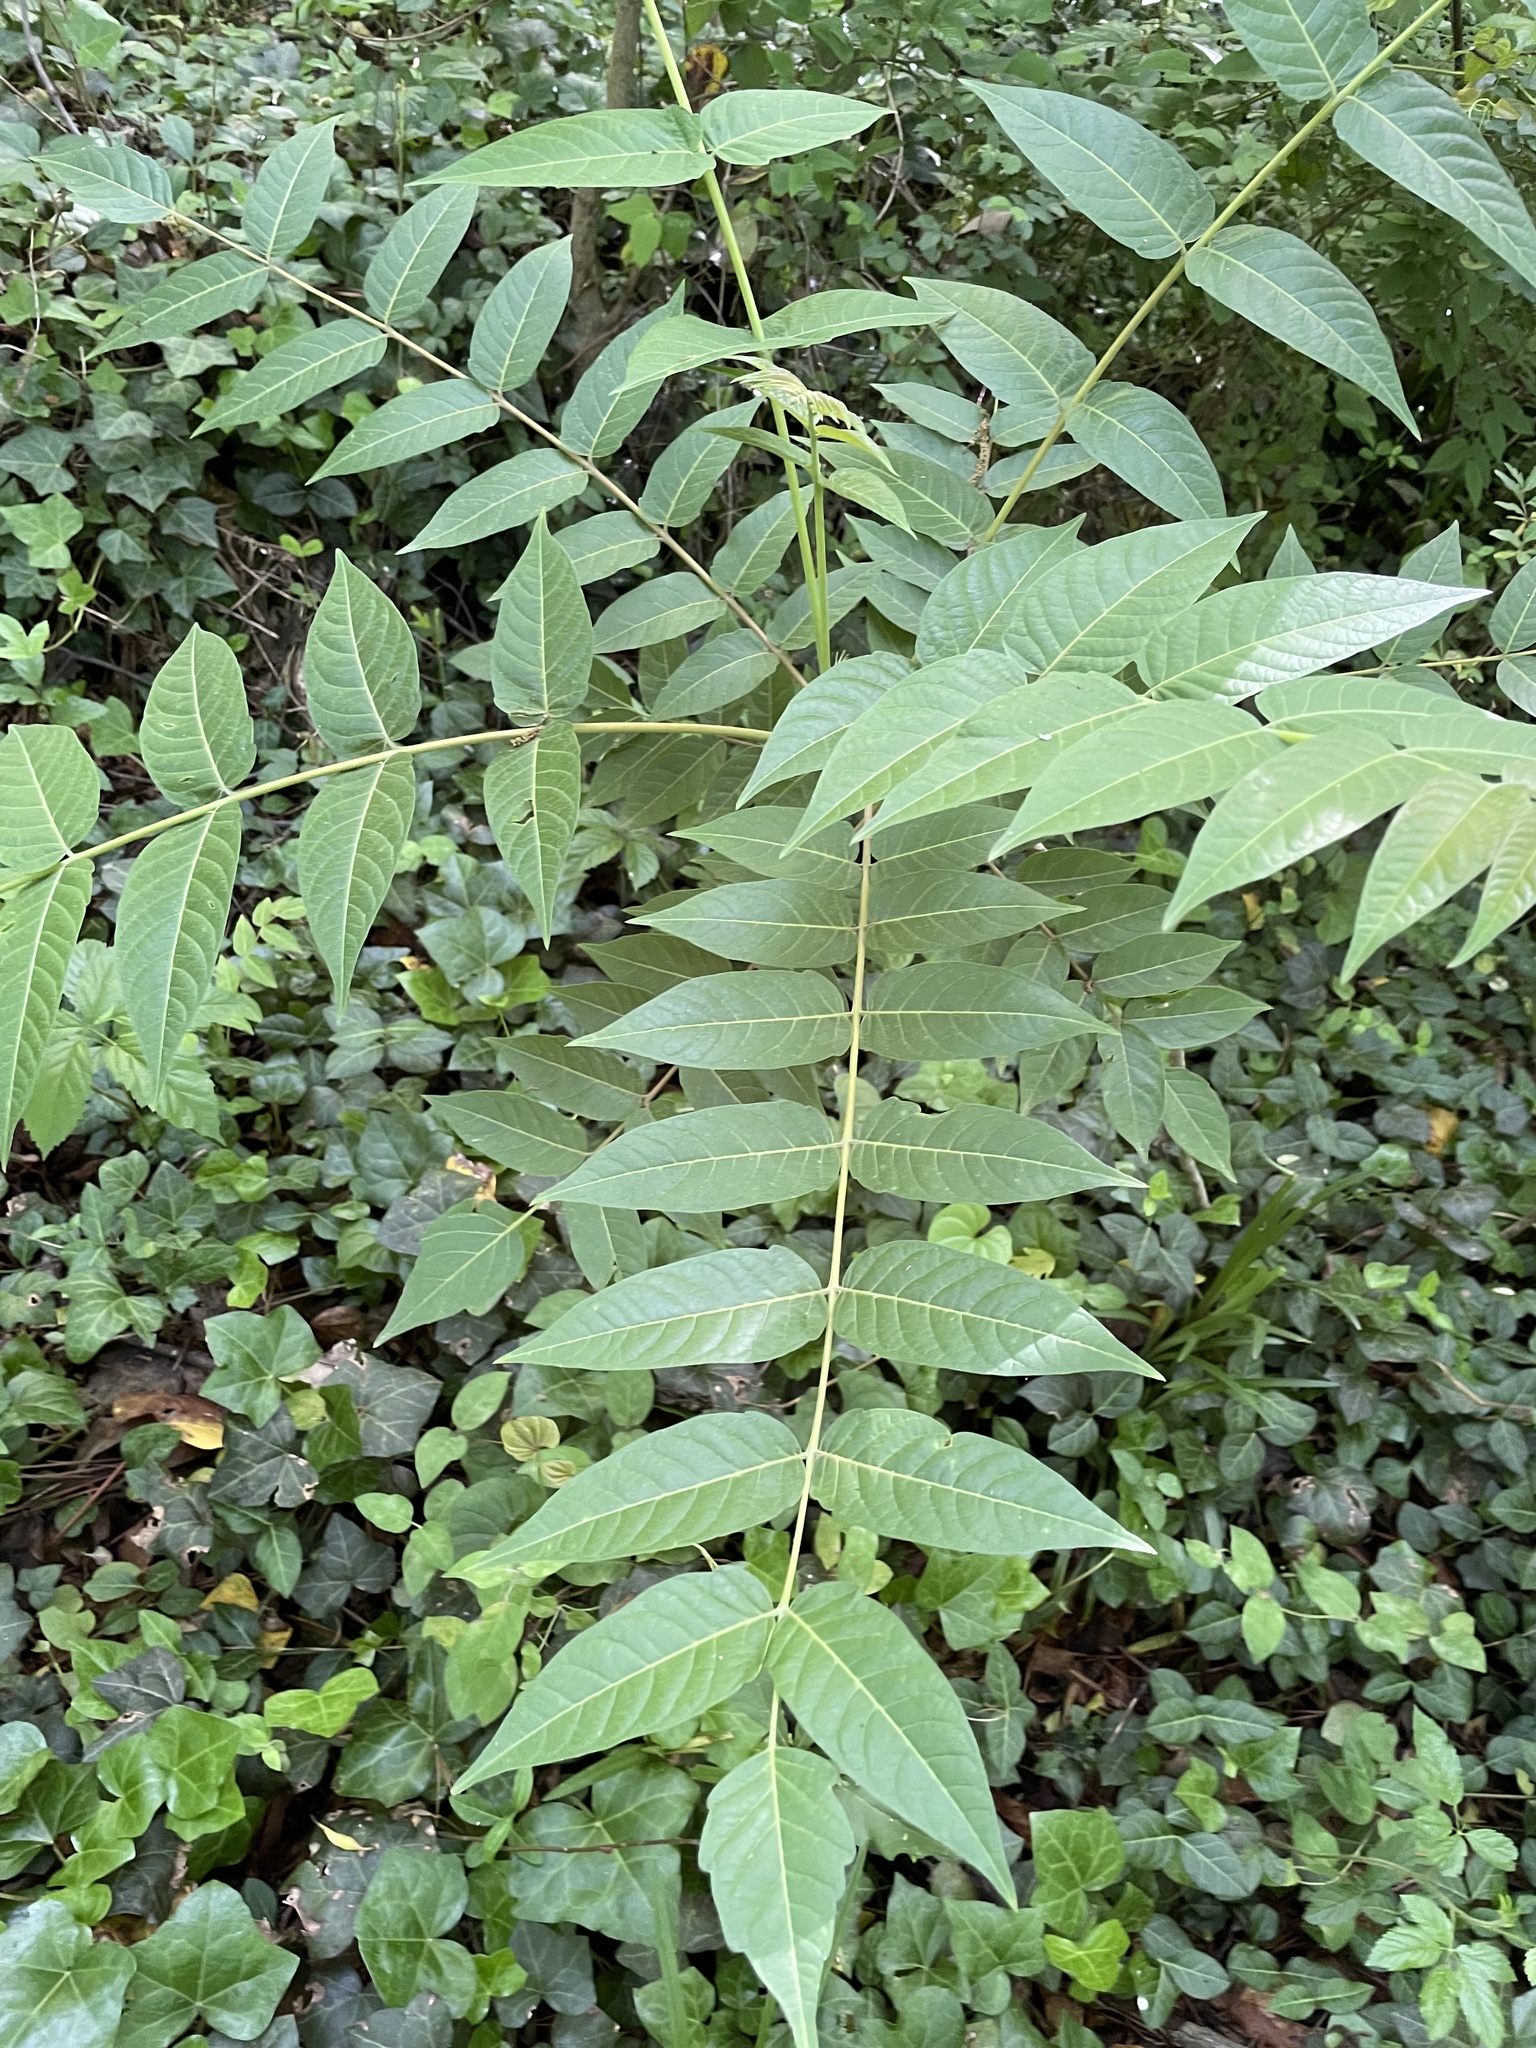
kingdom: Plantae
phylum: Tracheophyta
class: Magnoliopsida
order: Sapindales
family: Simaroubaceae
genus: Ailanthus
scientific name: Ailanthus altissima
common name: Tree-of-heaven
